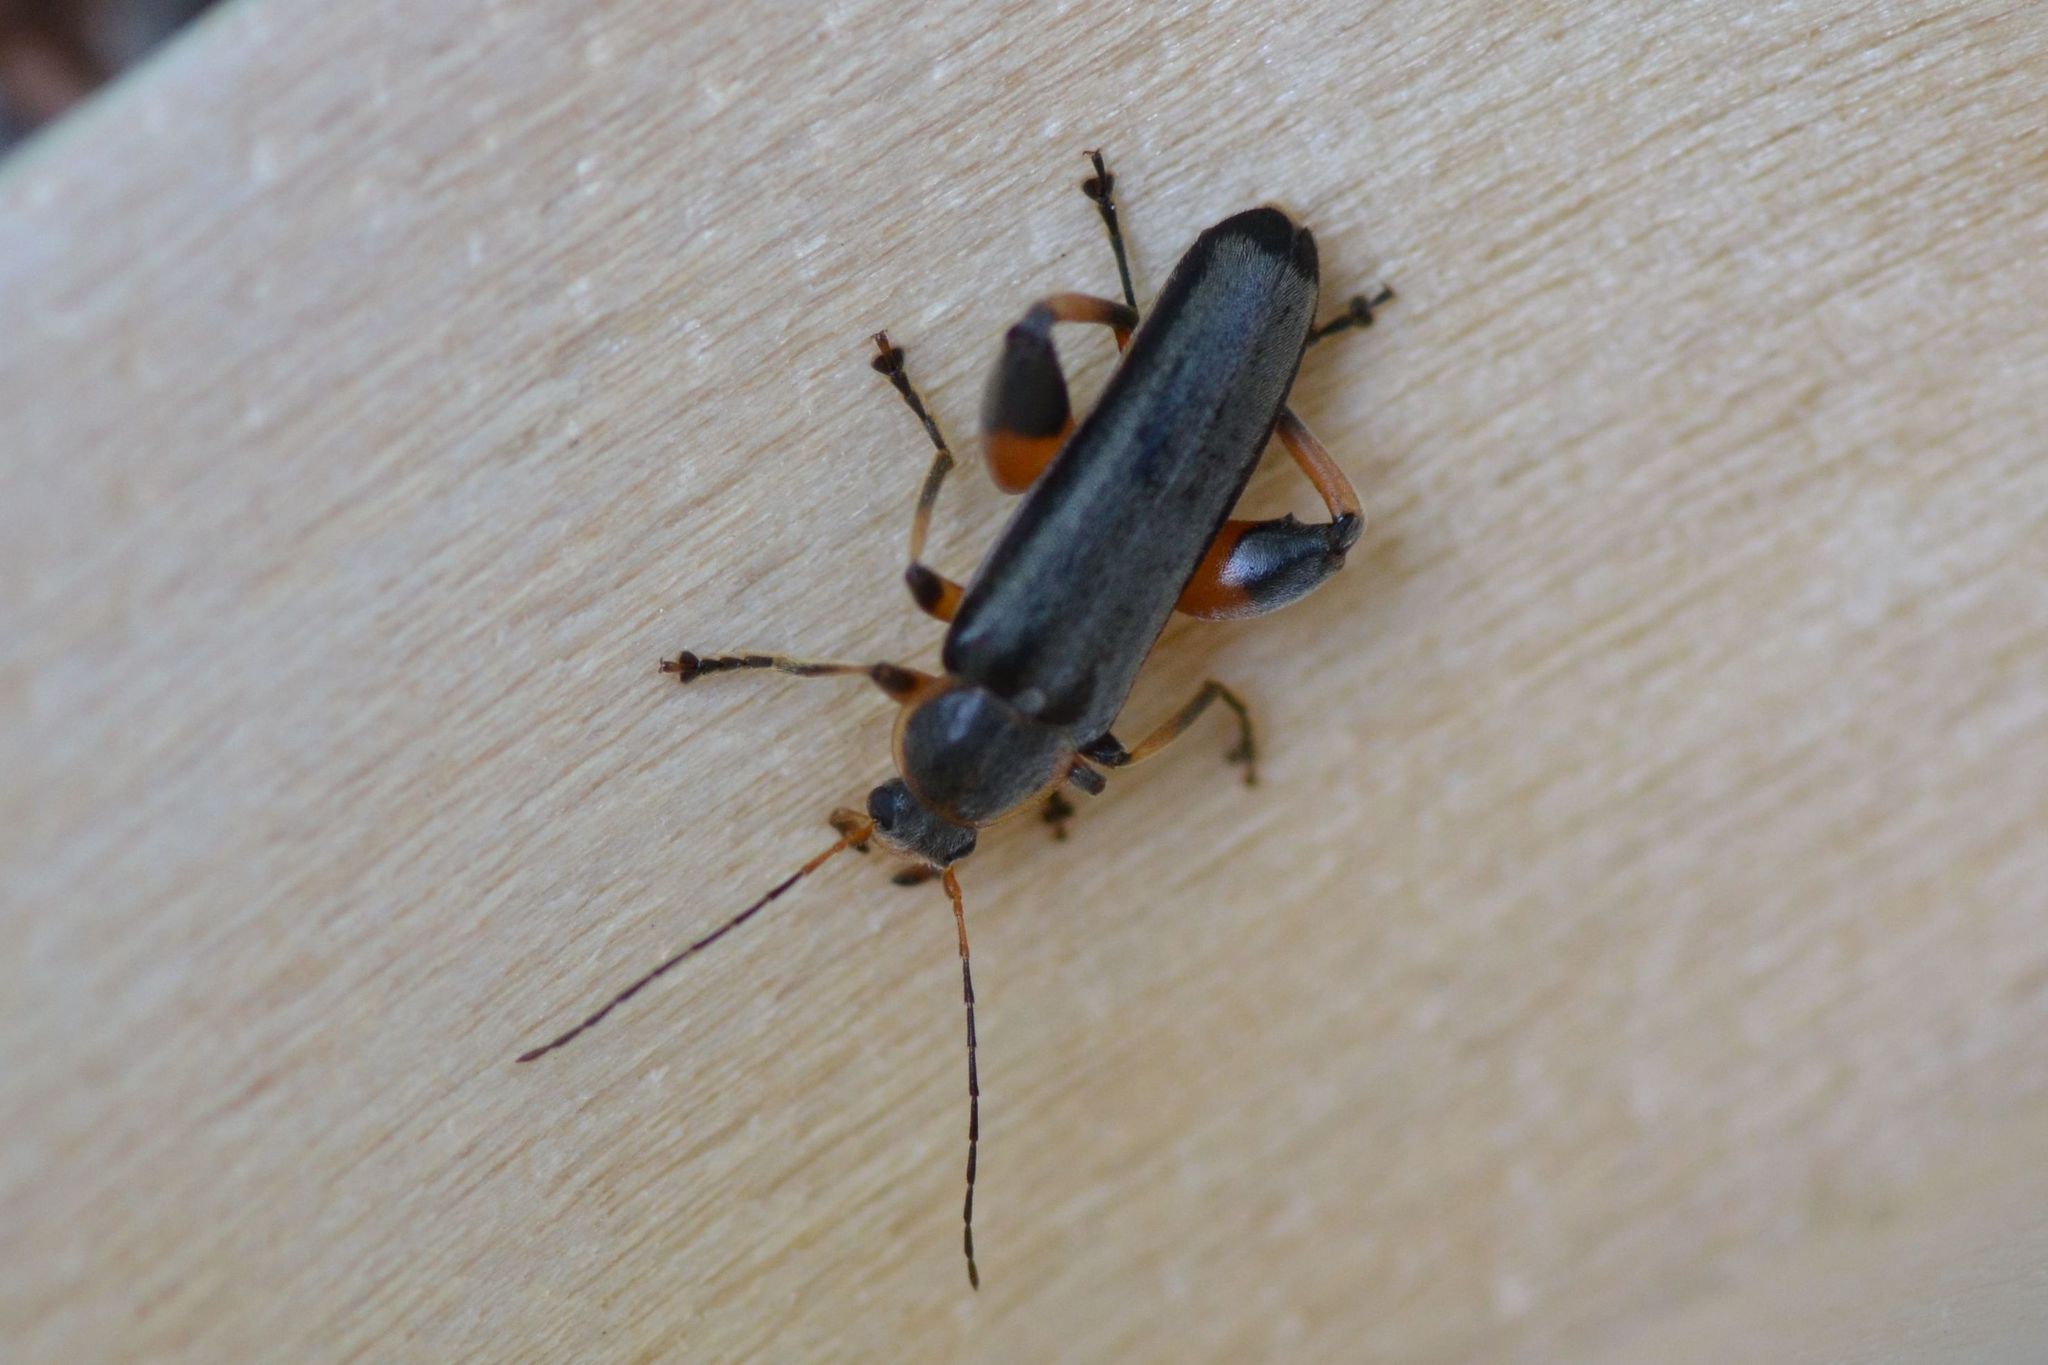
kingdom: Animalia
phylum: Arthropoda
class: Insecta
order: Coleoptera
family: Melandryidae
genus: Osphya
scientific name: Osphya bipunctata
